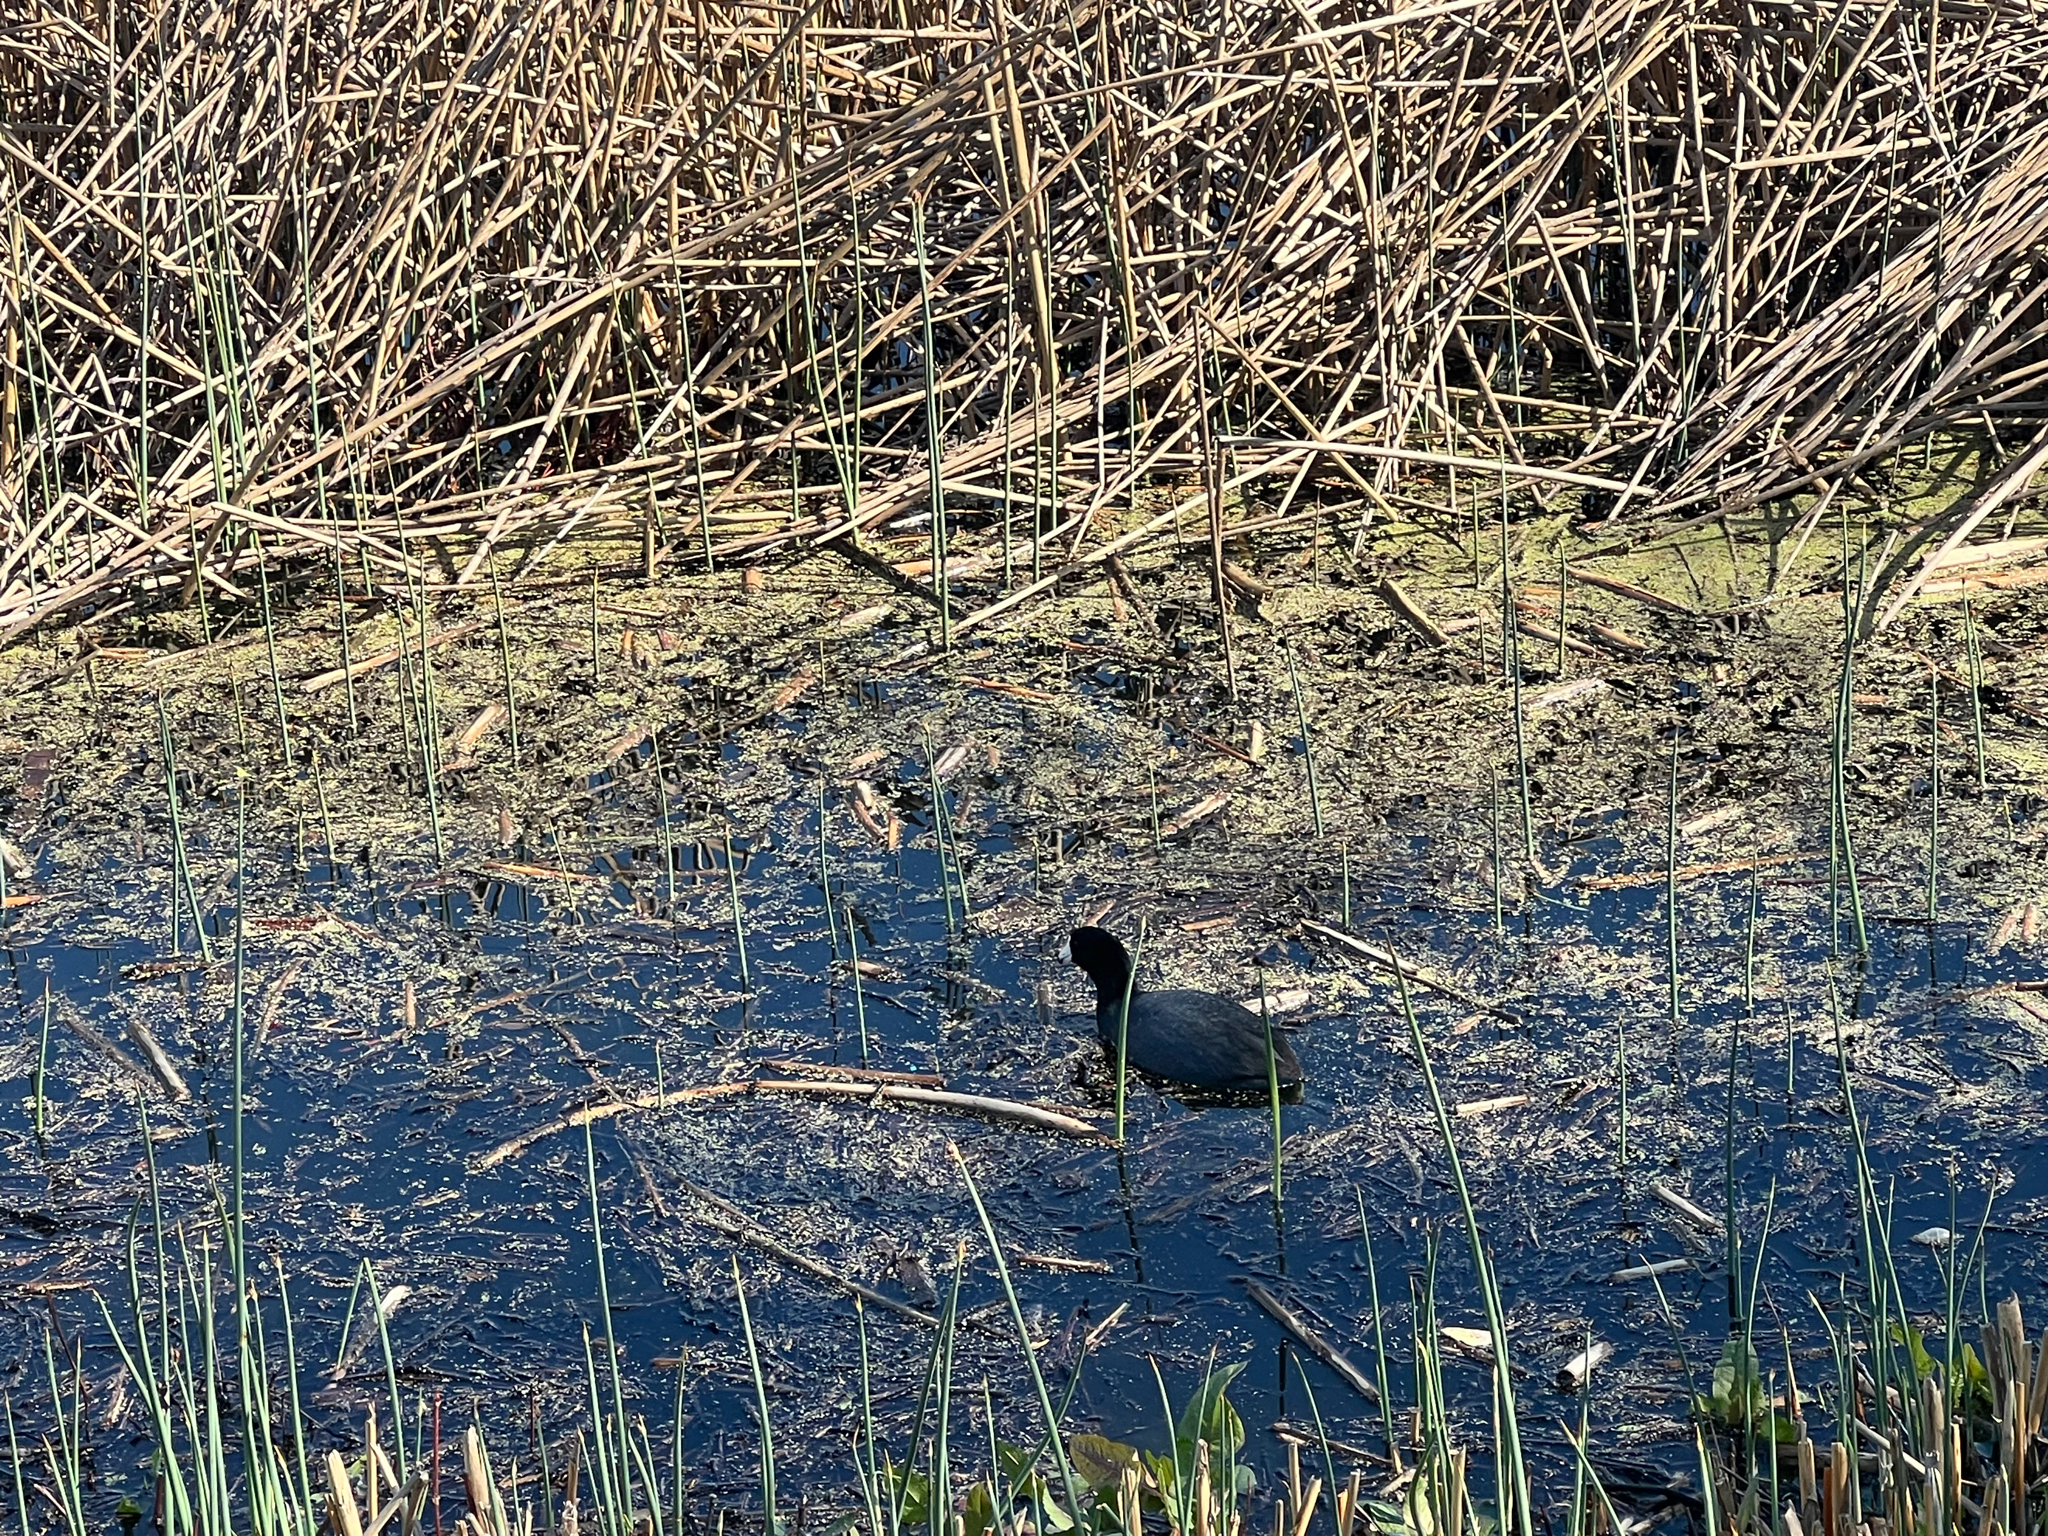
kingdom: Animalia
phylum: Chordata
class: Aves
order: Gruiformes
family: Rallidae
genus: Fulica
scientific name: Fulica americana
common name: American coot
